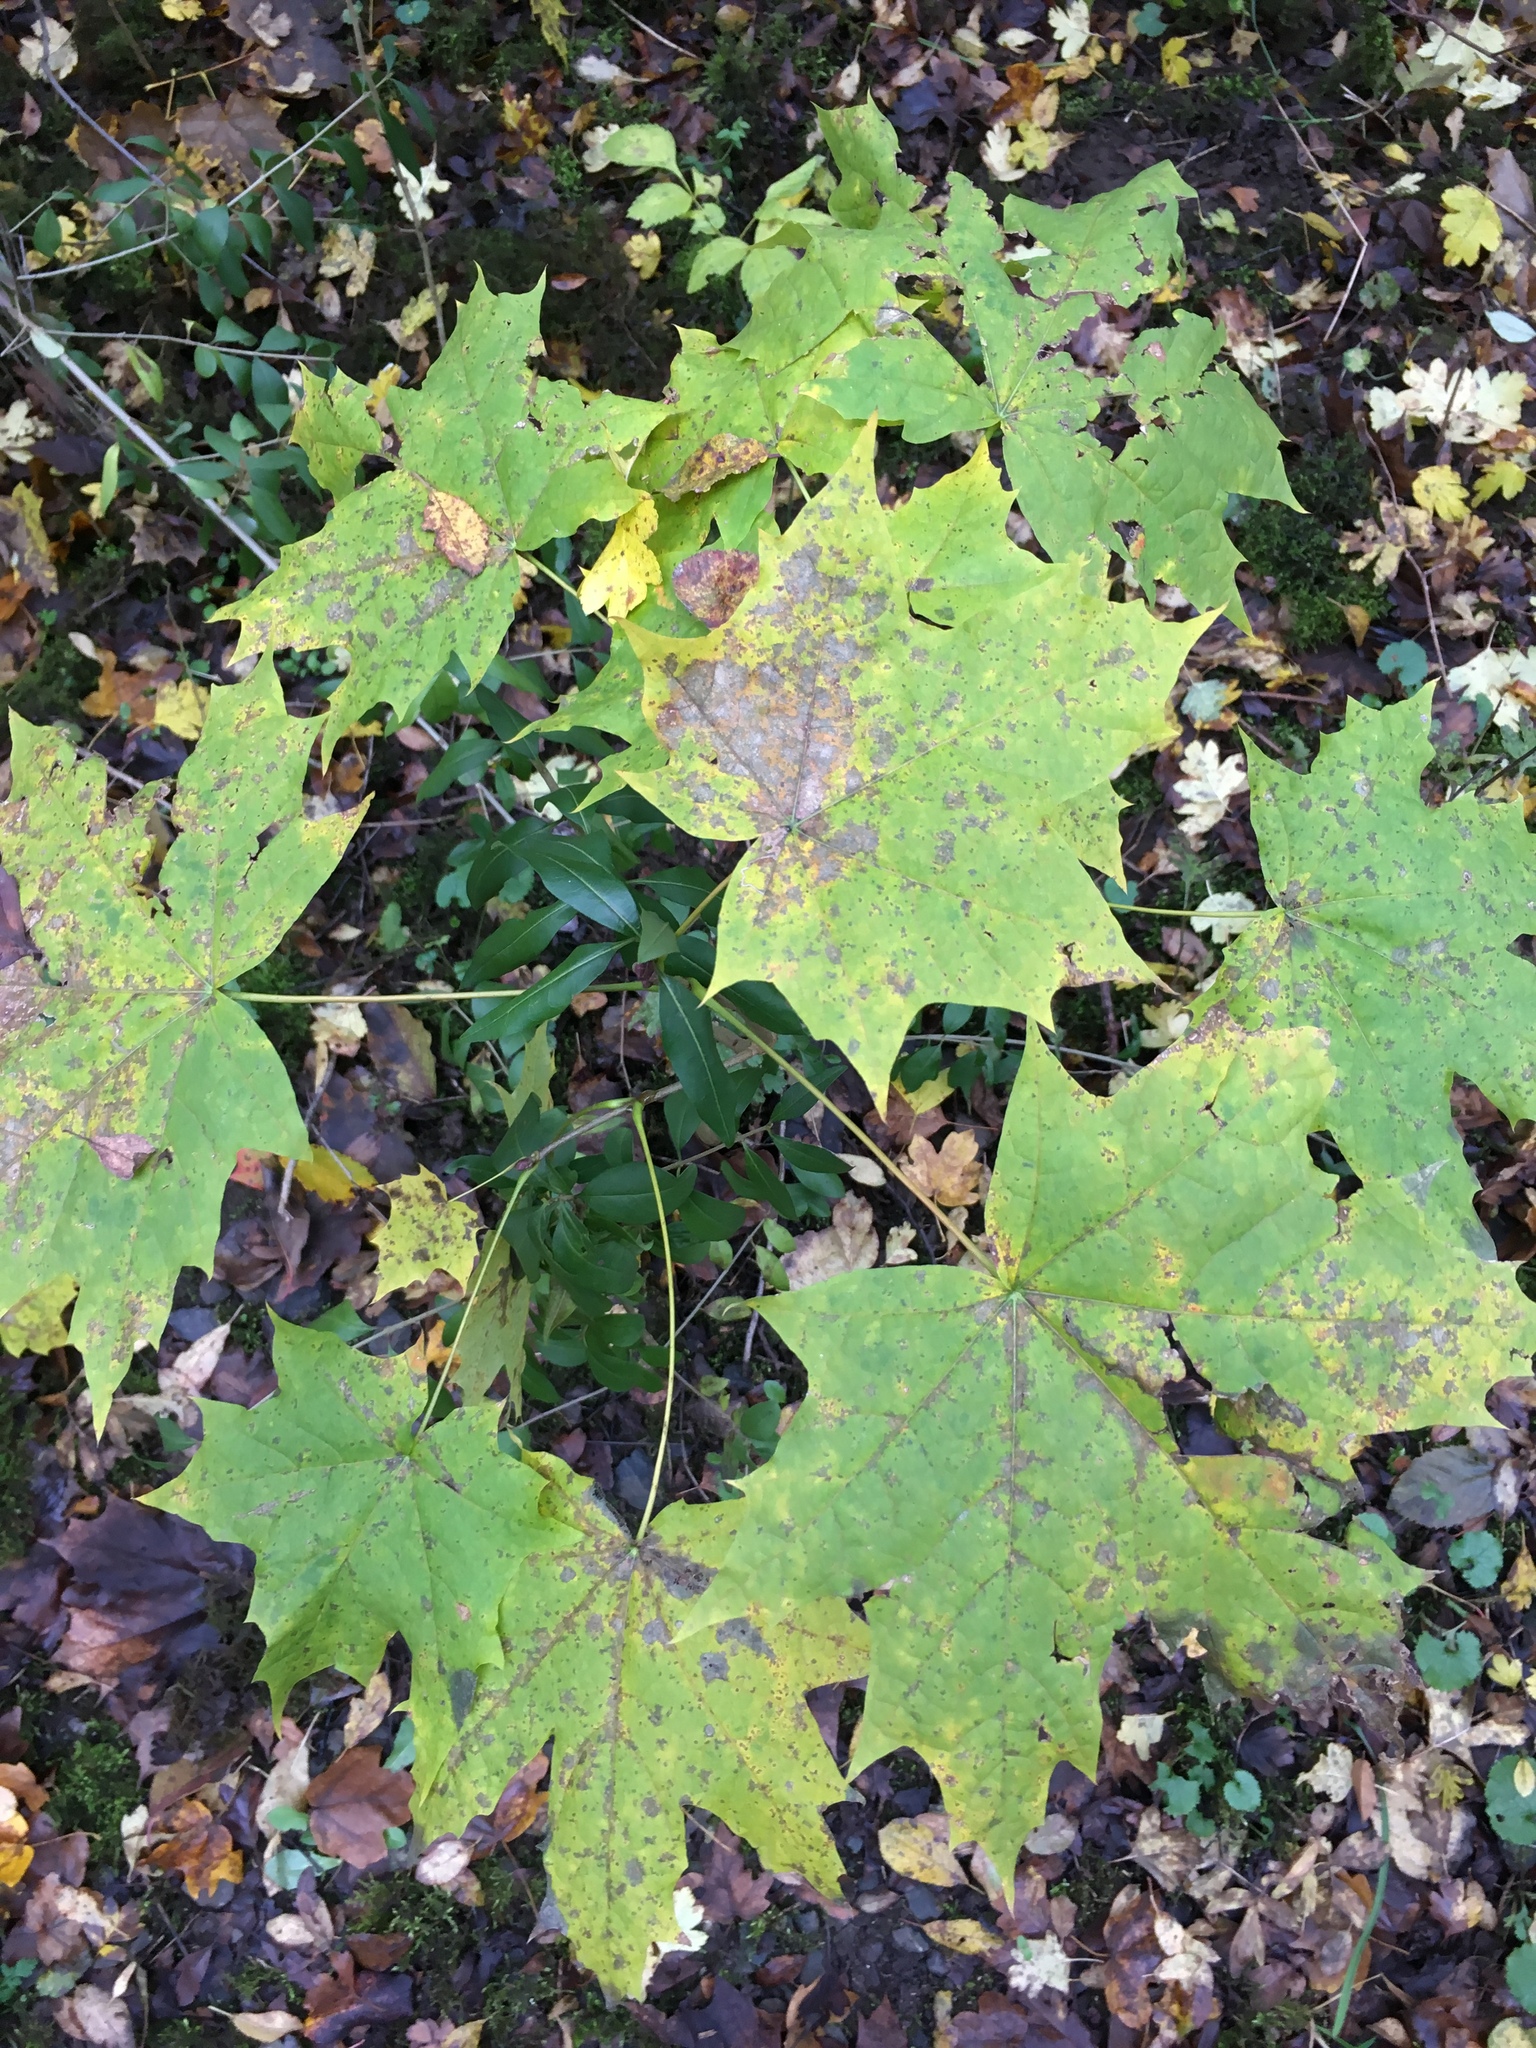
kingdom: Plantae
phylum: Tracheophyta
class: Magnoliopsida
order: Sapindales
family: Sapindaceae
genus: Acer
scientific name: Acer platanoides
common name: Norway maple
